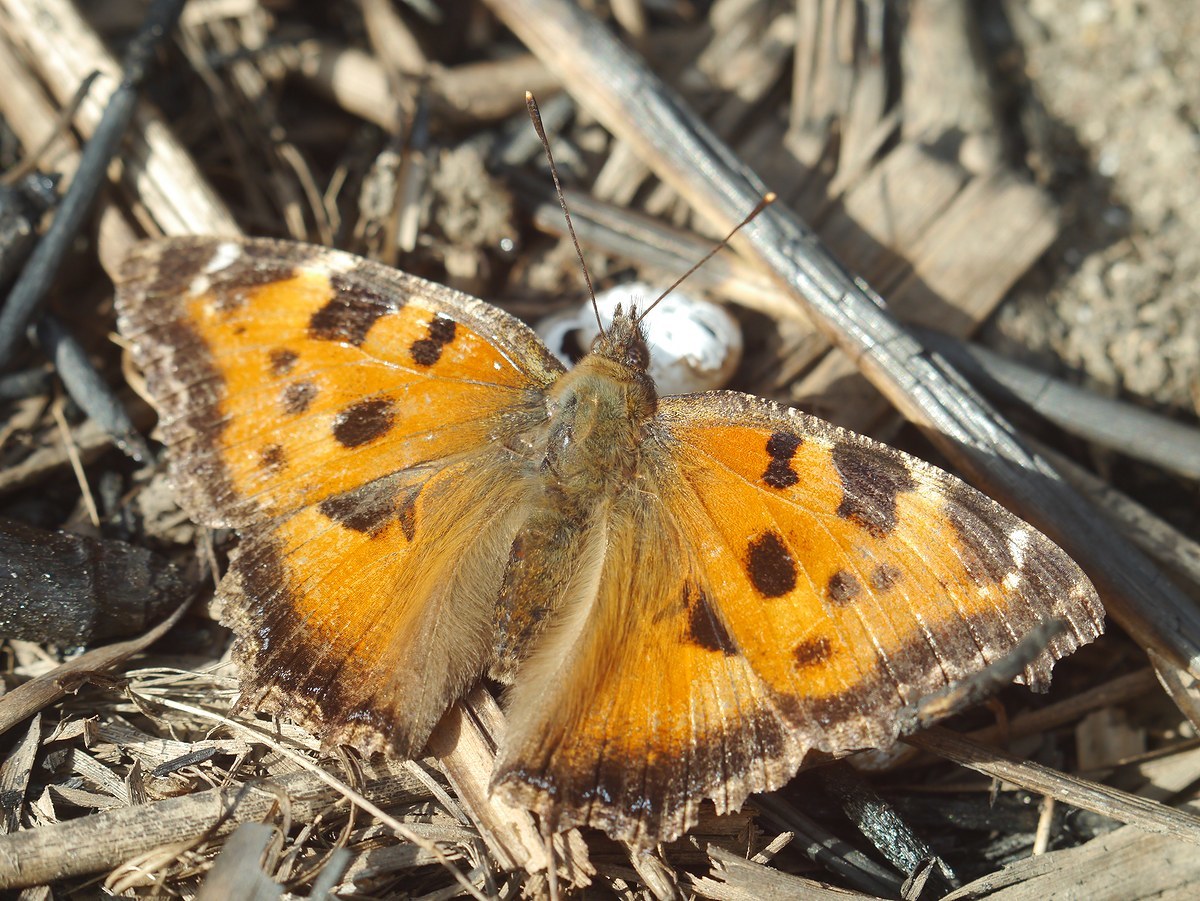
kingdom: Animalia
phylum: Arthropoda
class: Insecta
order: Lepidoptera
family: Nymphalidae
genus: Nymphalis
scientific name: Nymphalis xanthomelas
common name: Scarce tortoiseshell
